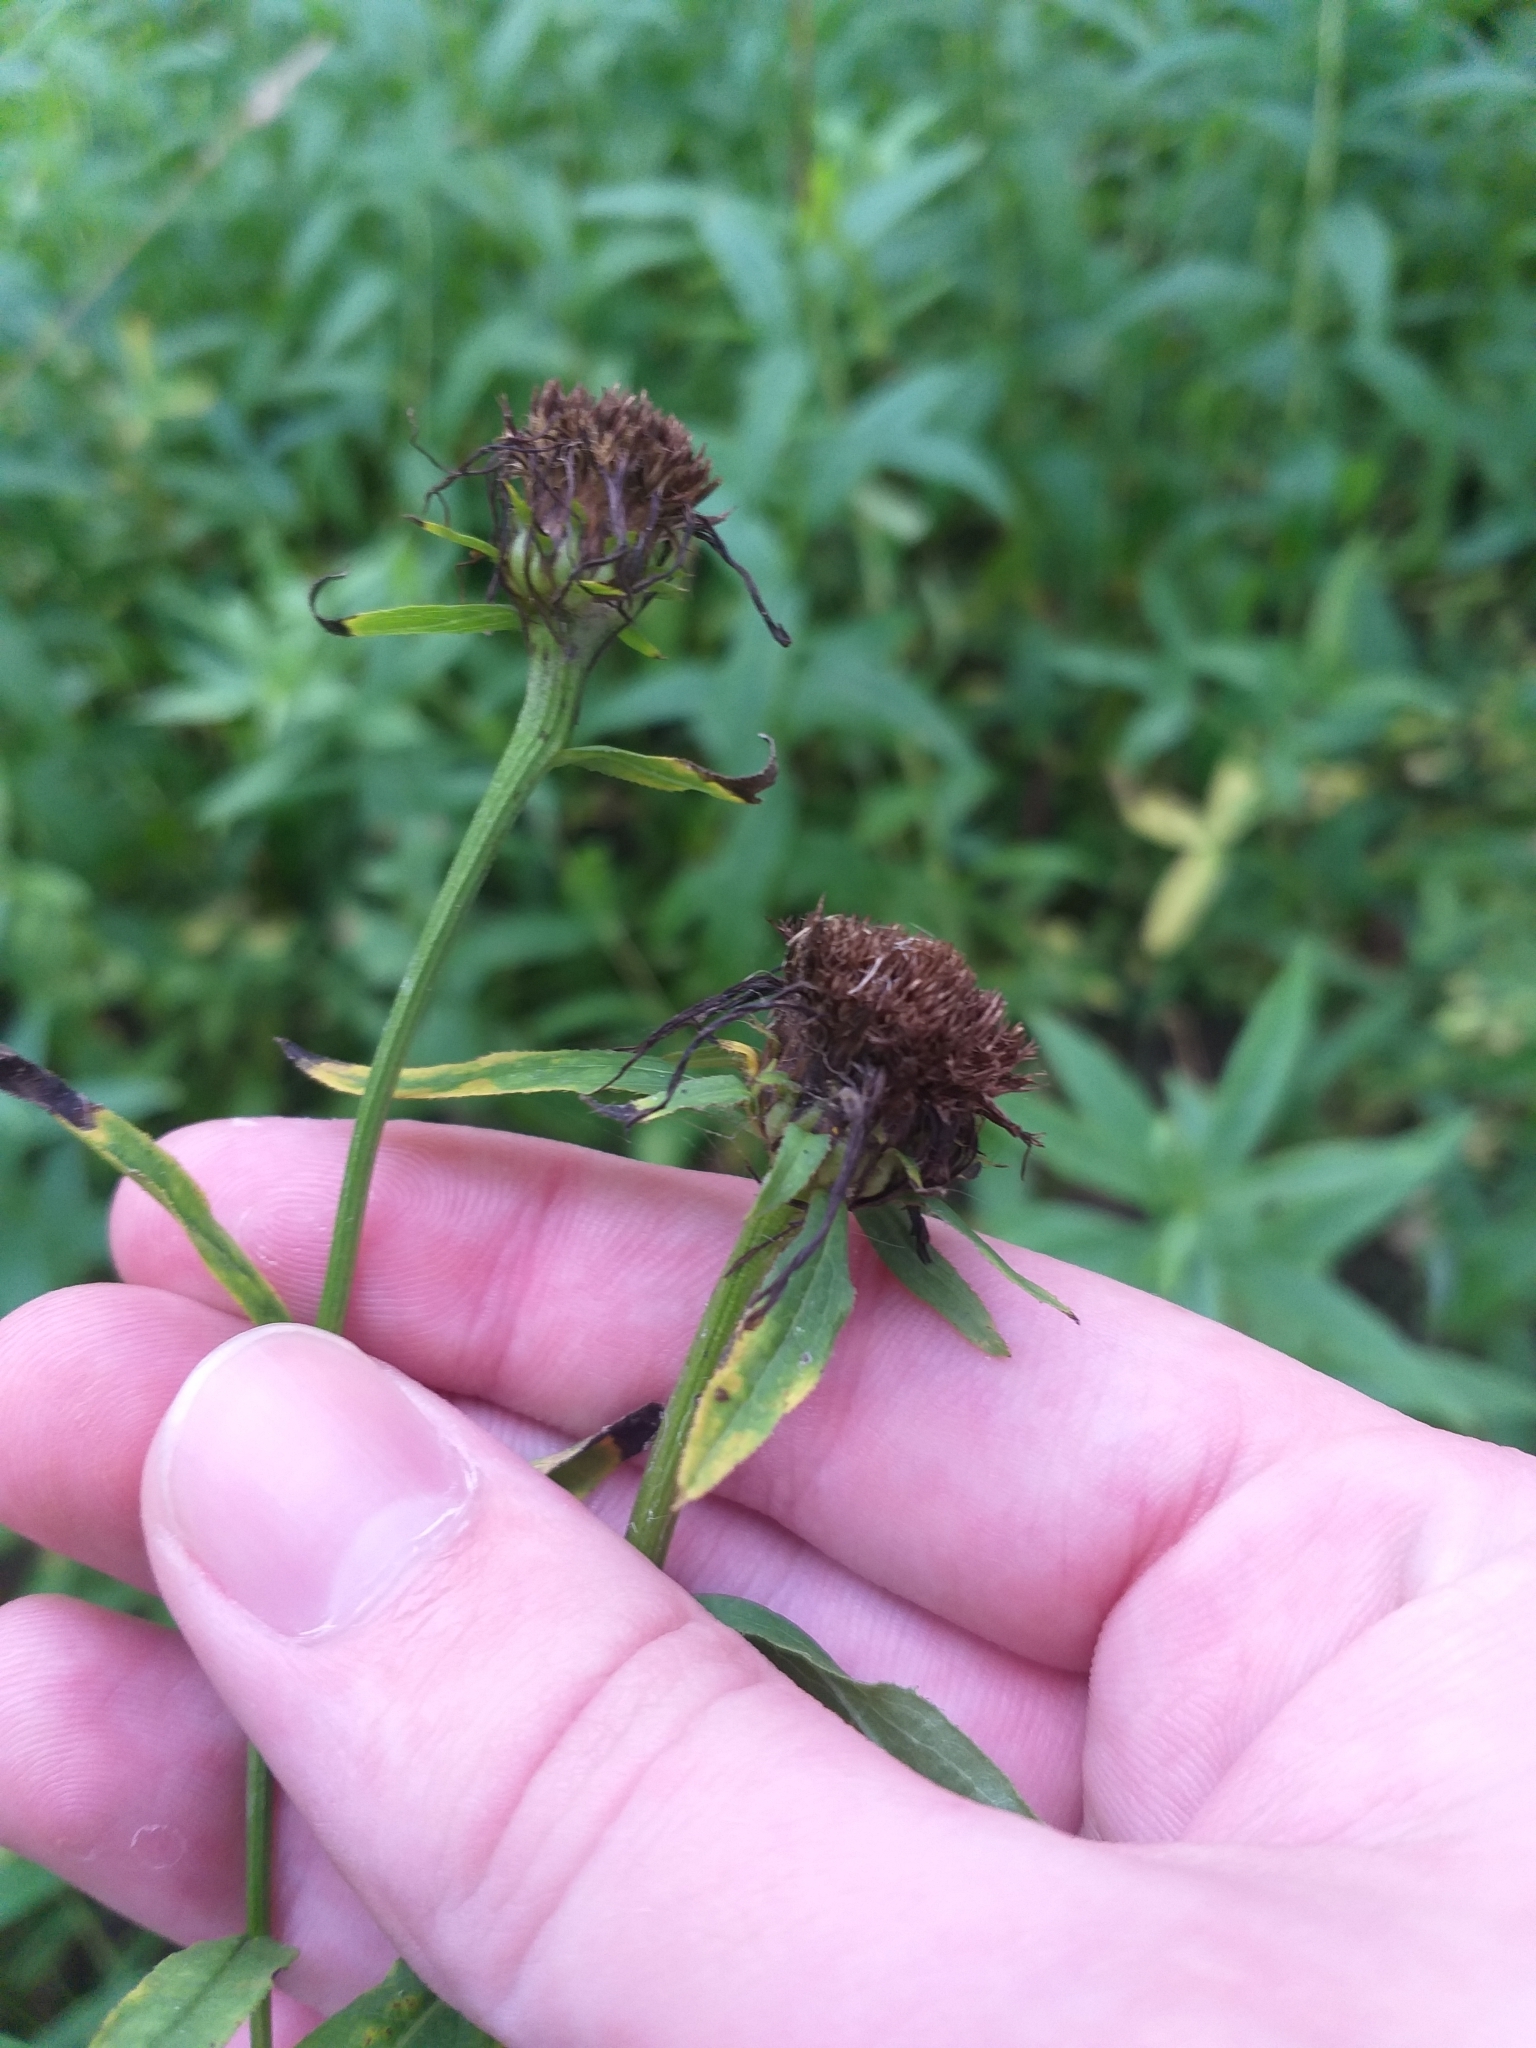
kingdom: Plantae
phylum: Tracheophyta
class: Magnoliopsida
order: Asterales
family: Asteraceae
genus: Pentanema
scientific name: Pentanema salicinum
